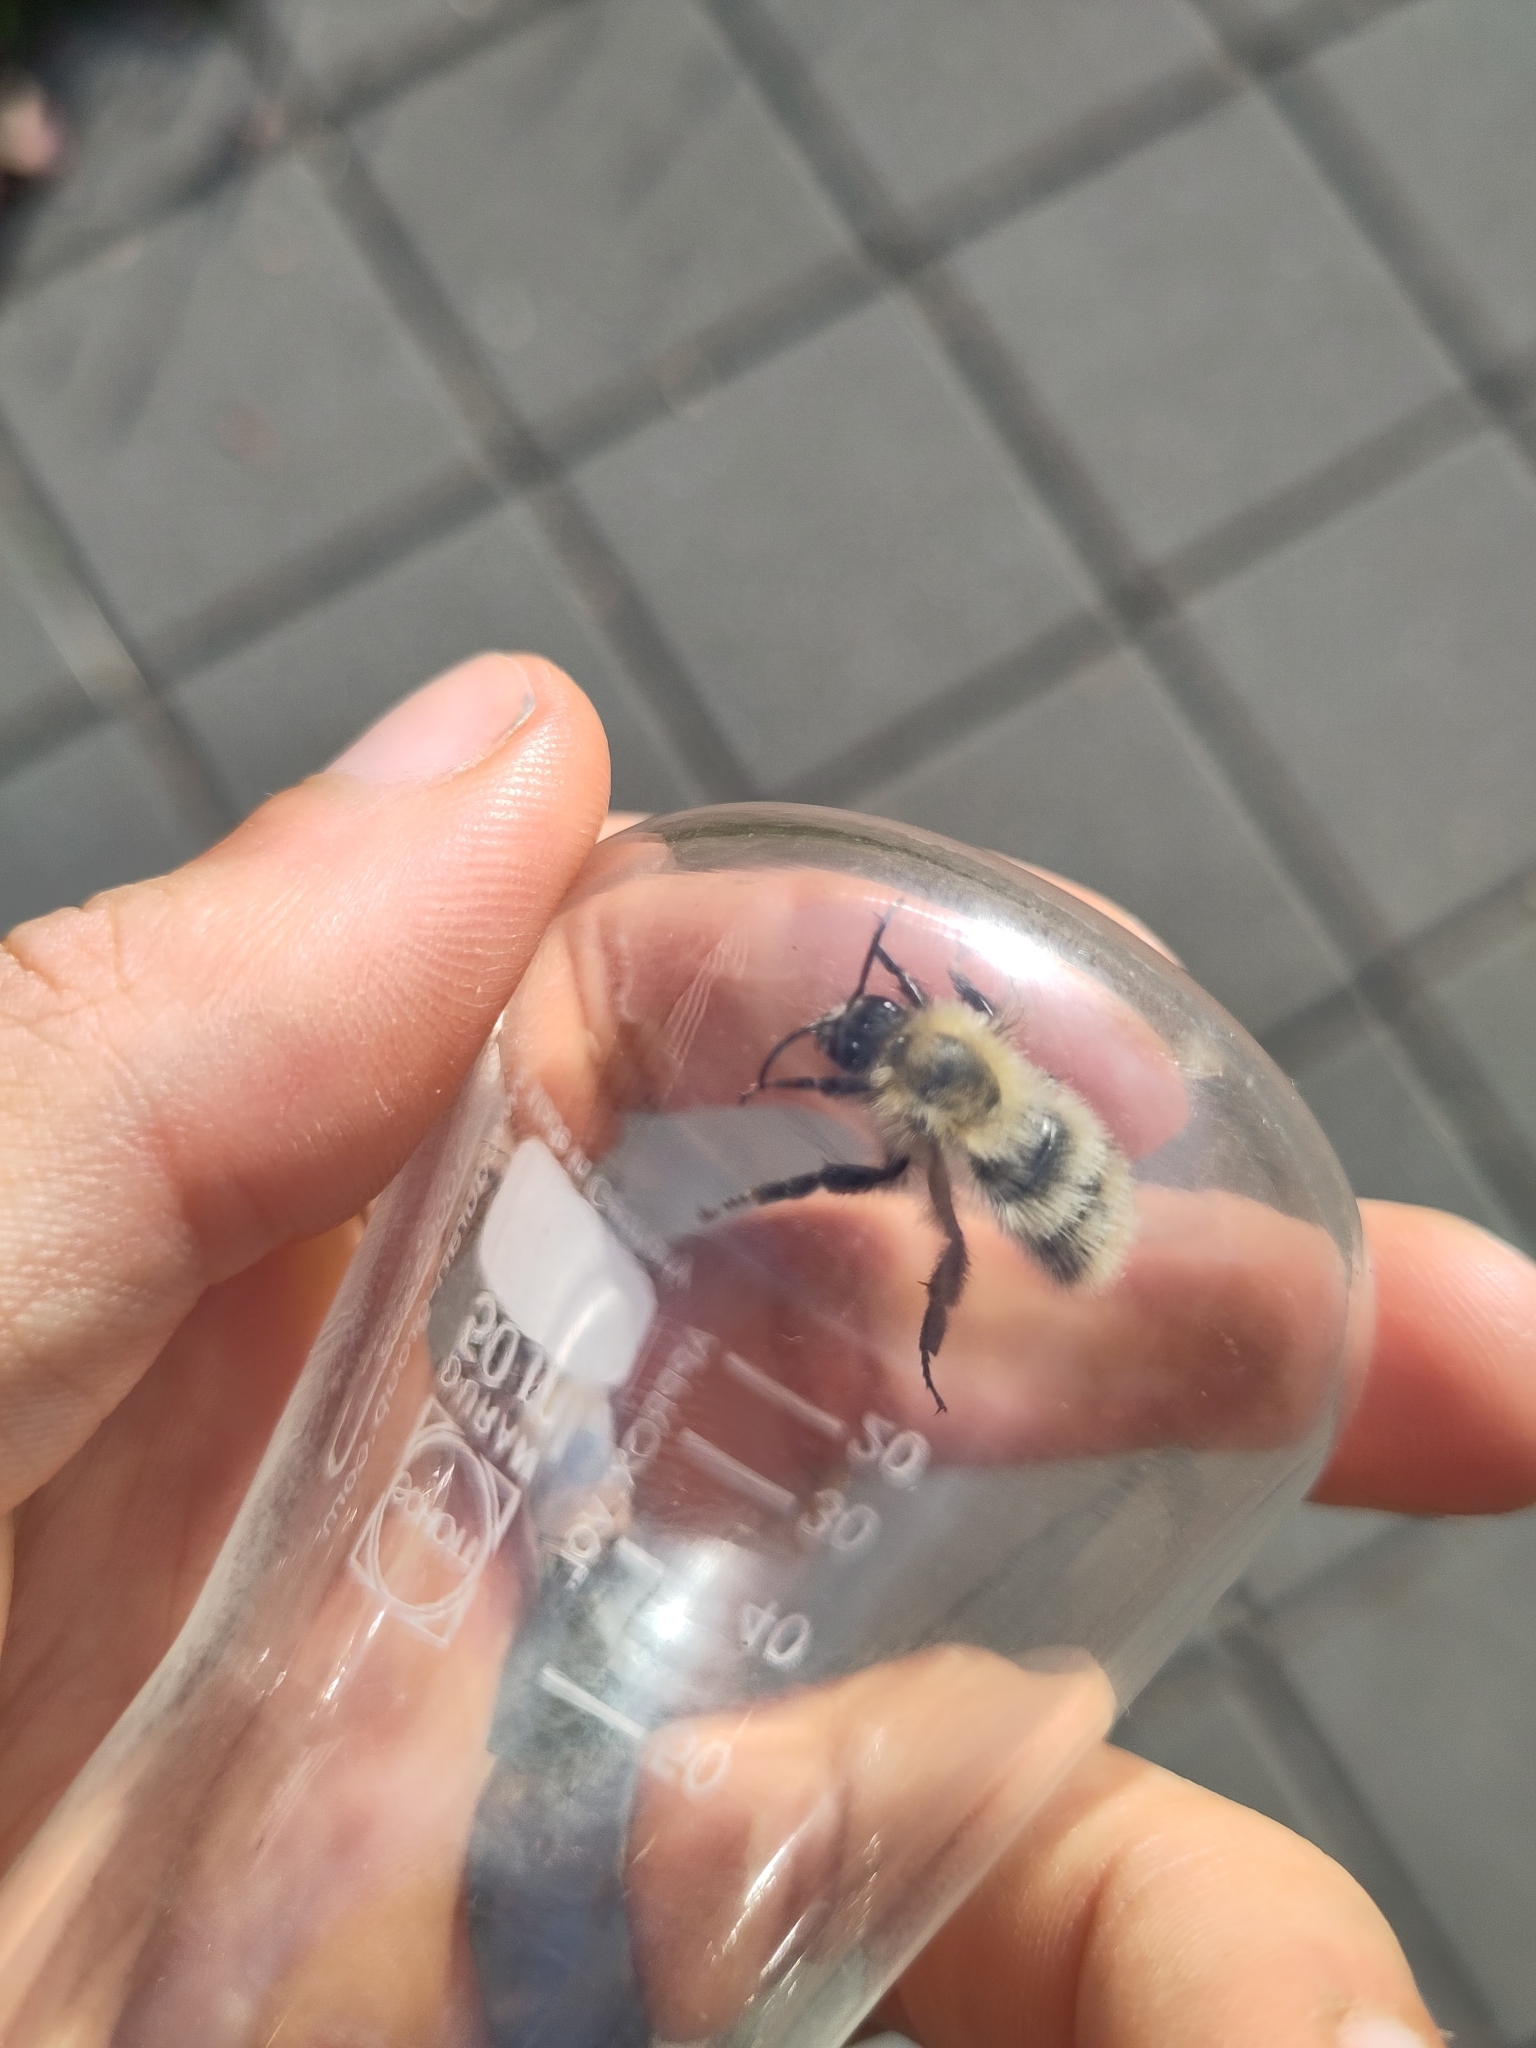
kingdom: Animalia
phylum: Arthropoda
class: Insecta
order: Hymenoptera
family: Apidae
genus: Bombus
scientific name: Bombus pascuorum
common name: Common carder bee
